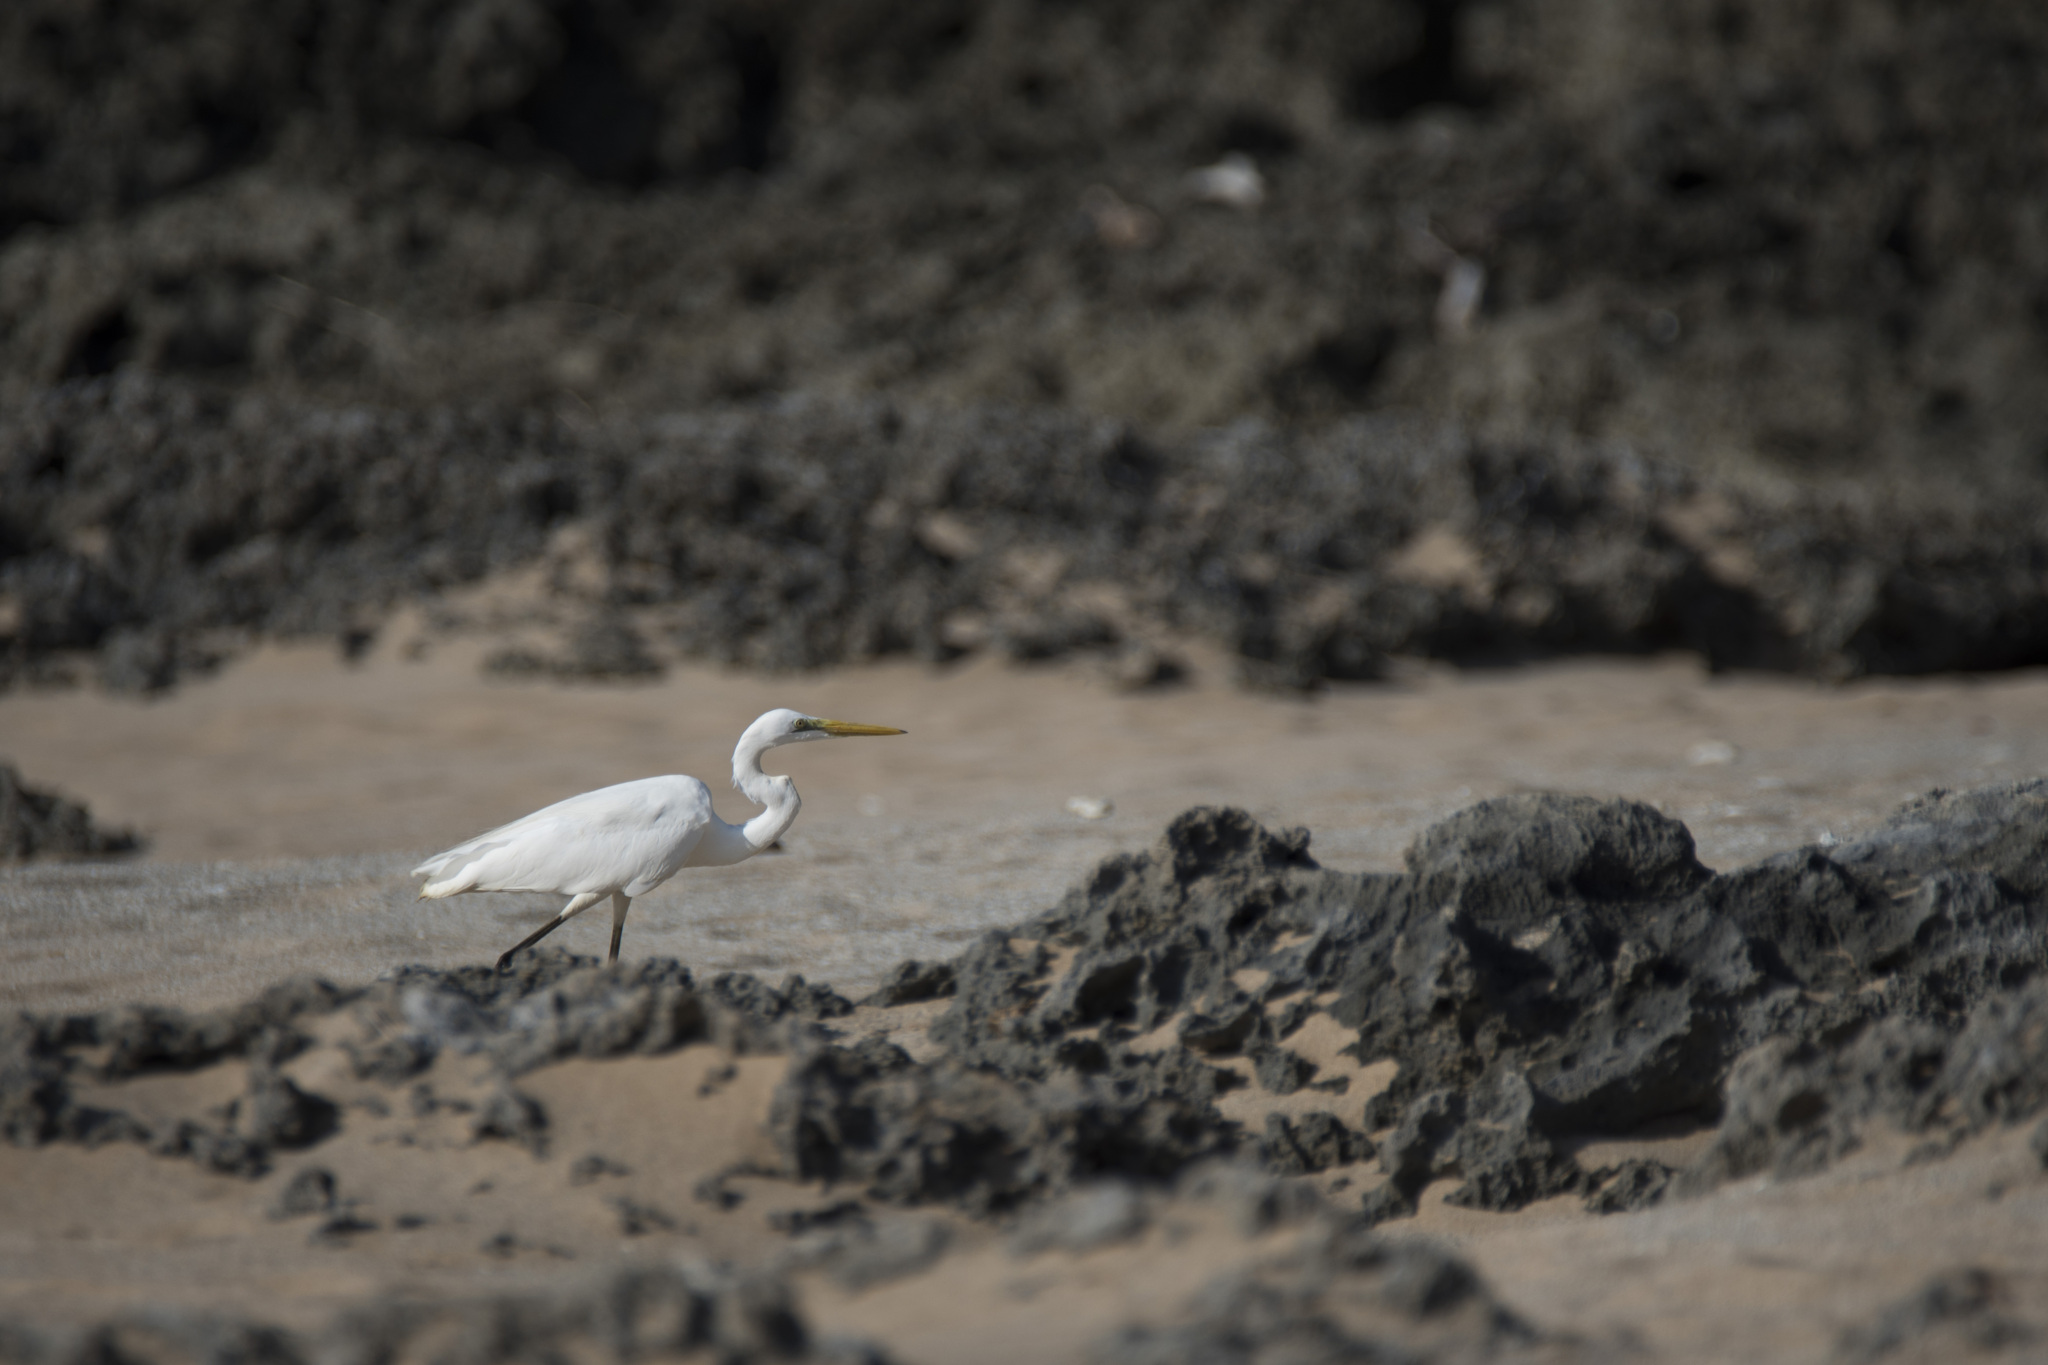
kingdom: Animalia
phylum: Chordata
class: Aves
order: Pelecaniformes
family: Ardeidae
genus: Ardea
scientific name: Ardea modesta
